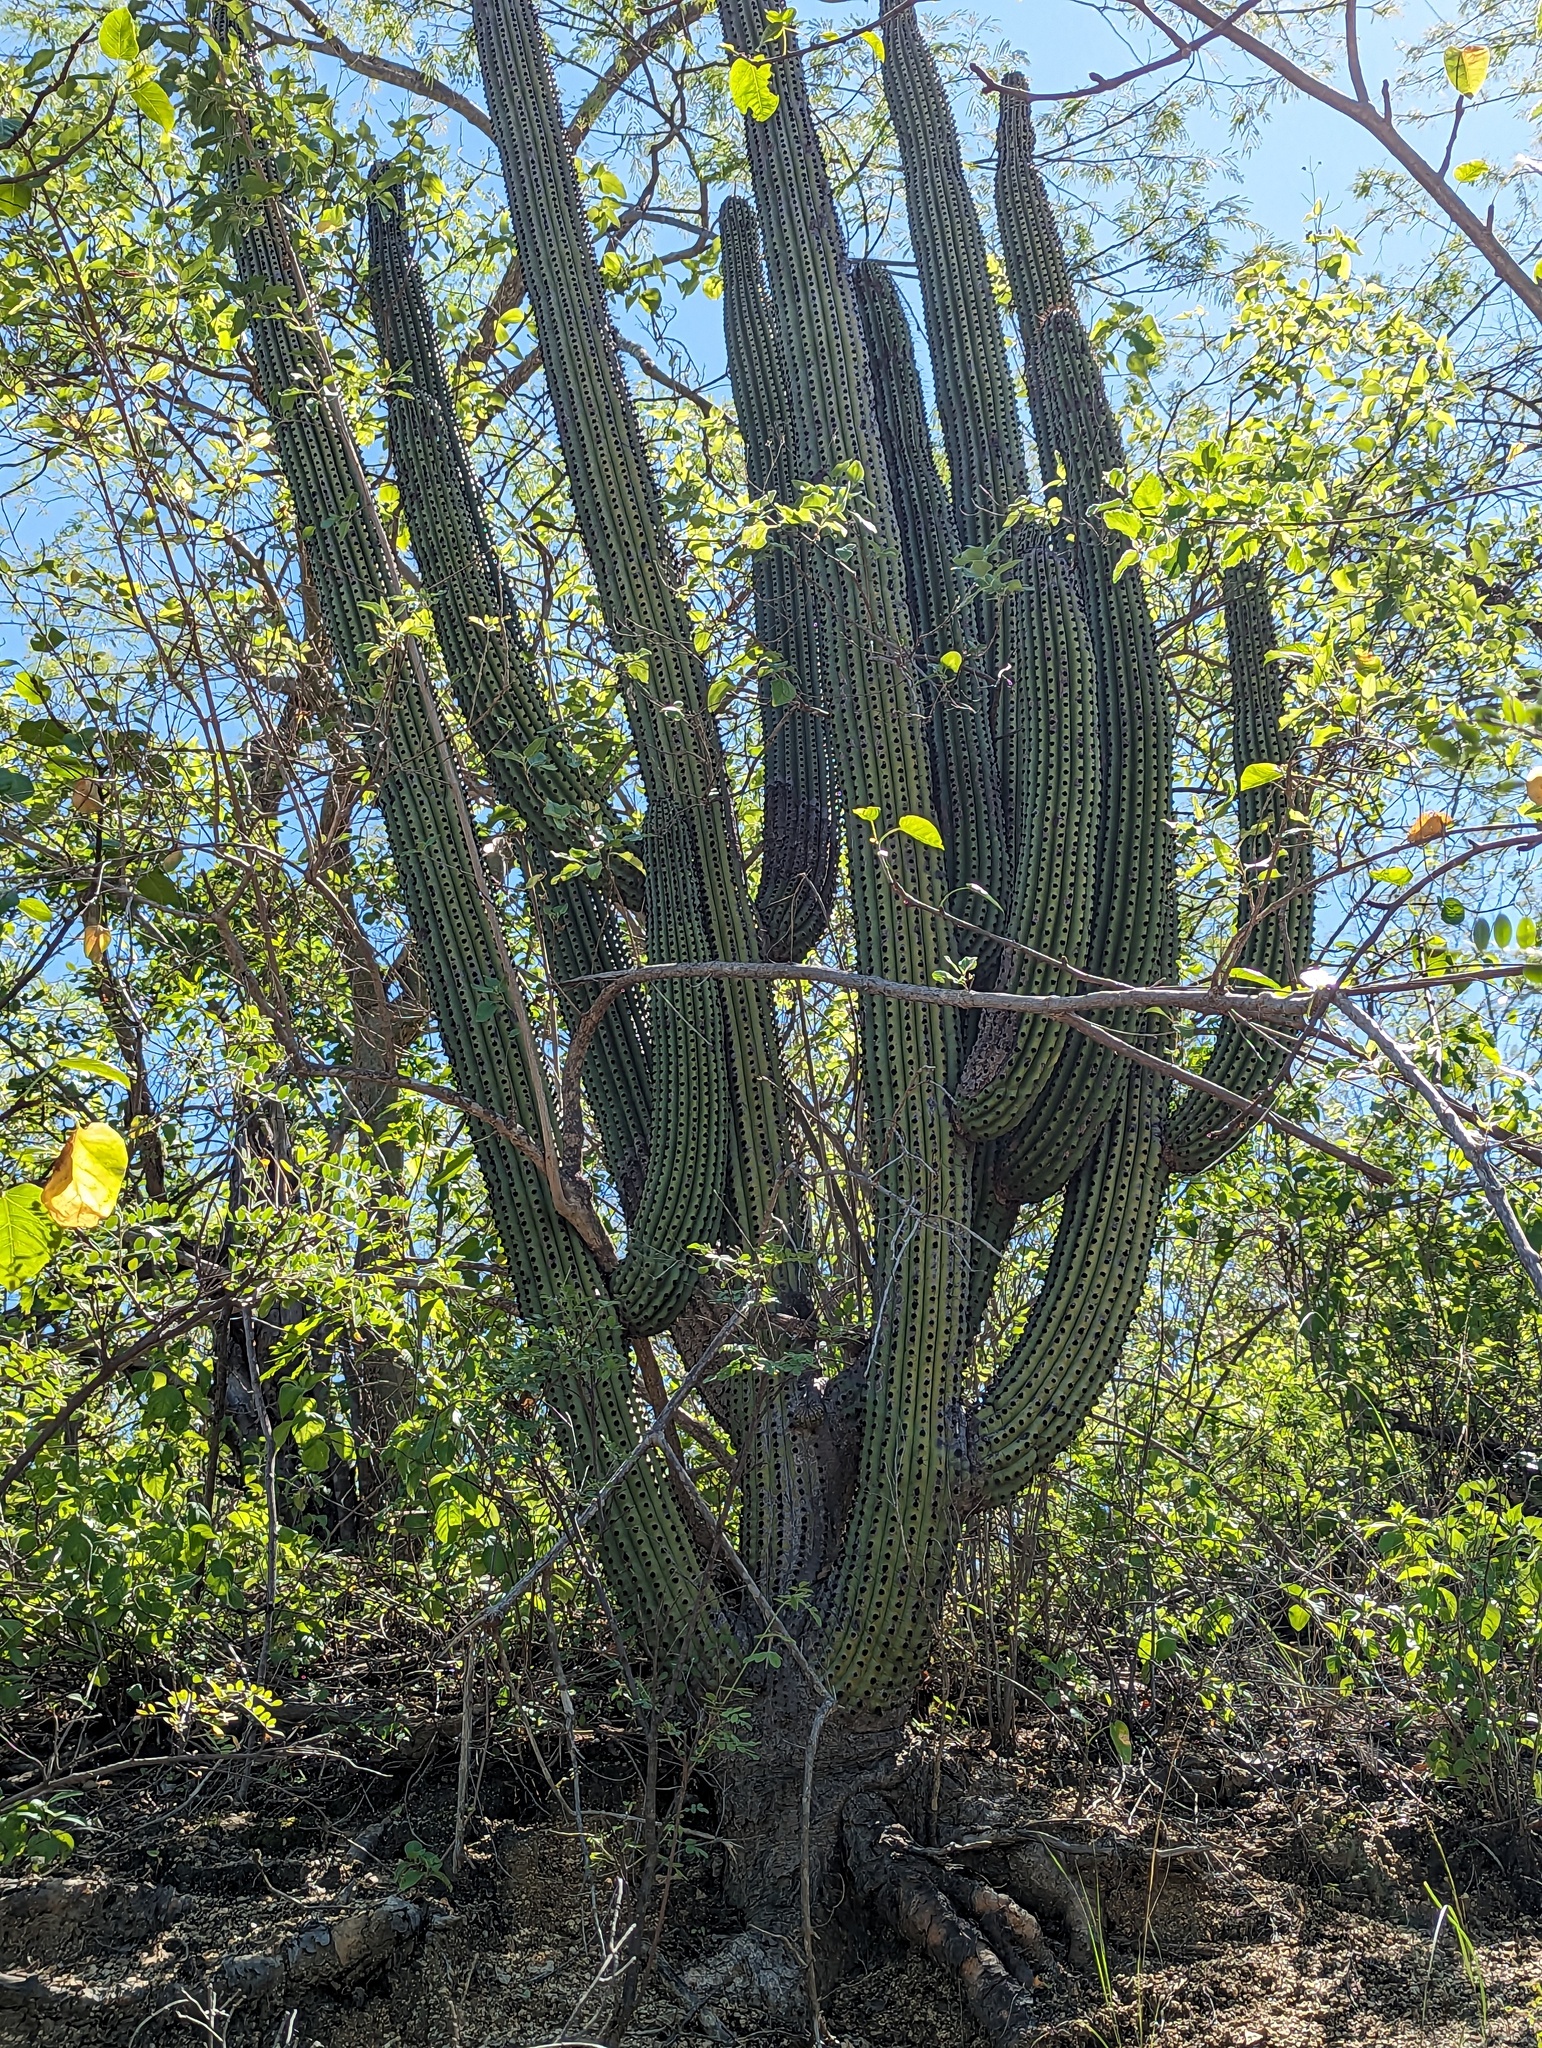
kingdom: Plantae
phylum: Tracheophyta
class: Magnoliopsida
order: Caryophyllales
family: Cactaceae
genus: Stenocereus
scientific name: Stenocereus thurberi
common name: Organ pipe cactus
